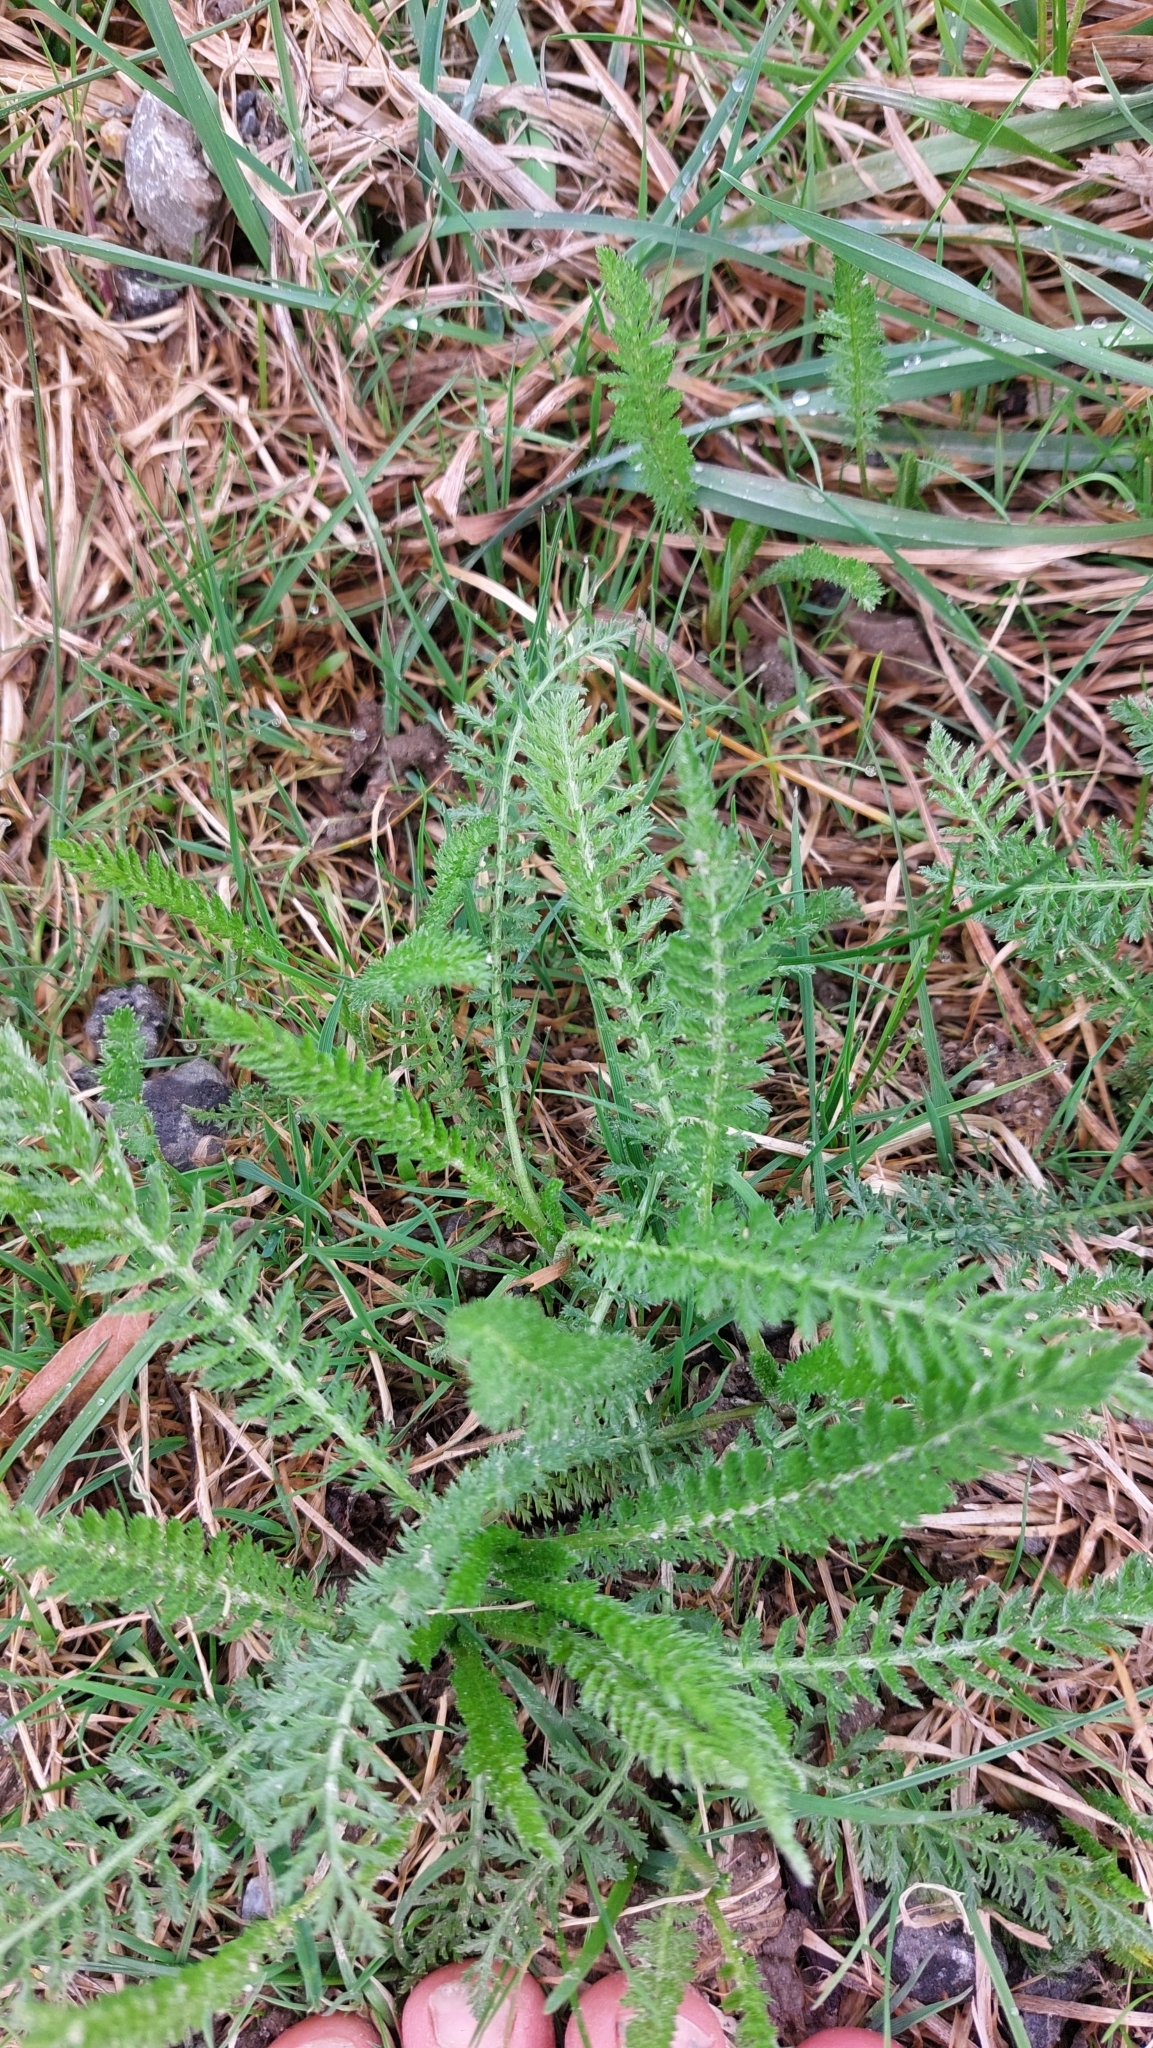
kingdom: Plantae
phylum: Tracheophyta
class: Magnoliopsida
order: Asterales
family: Asteraceae
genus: Achillea
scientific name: Achillea millefolium
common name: Yarrow
